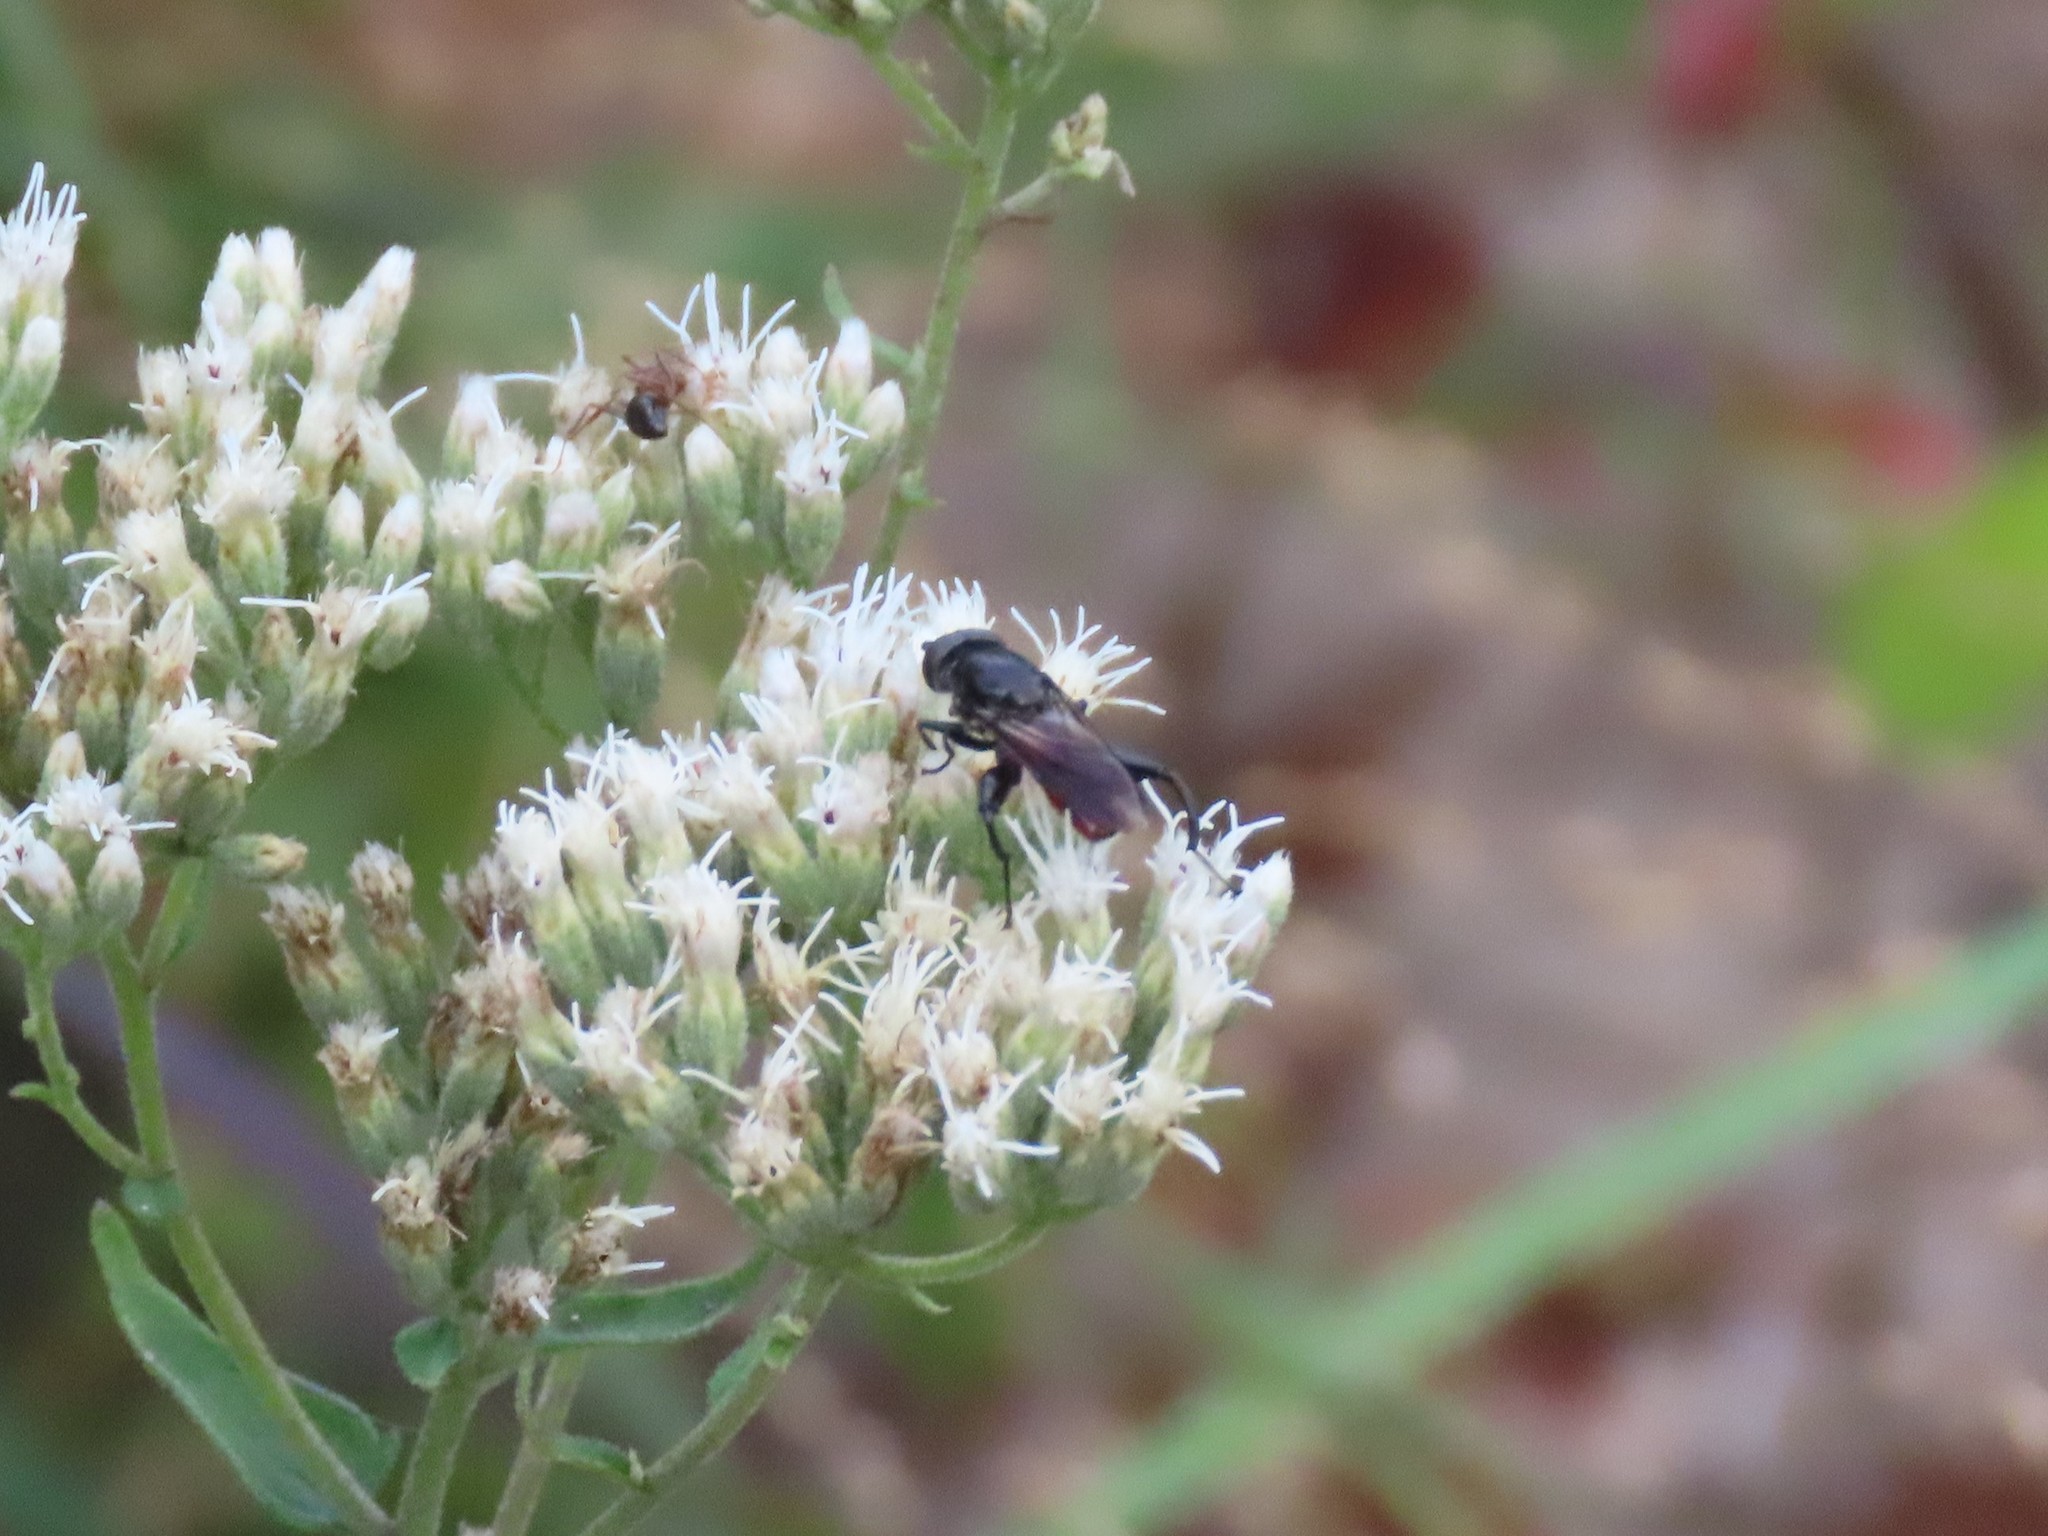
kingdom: Animalia
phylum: Arthropoda
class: Insecta
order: Diptera
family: Syrphidae
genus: Chalcosyrphus
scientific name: Chalcosyrphus piger
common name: Short-haired leafwalker
